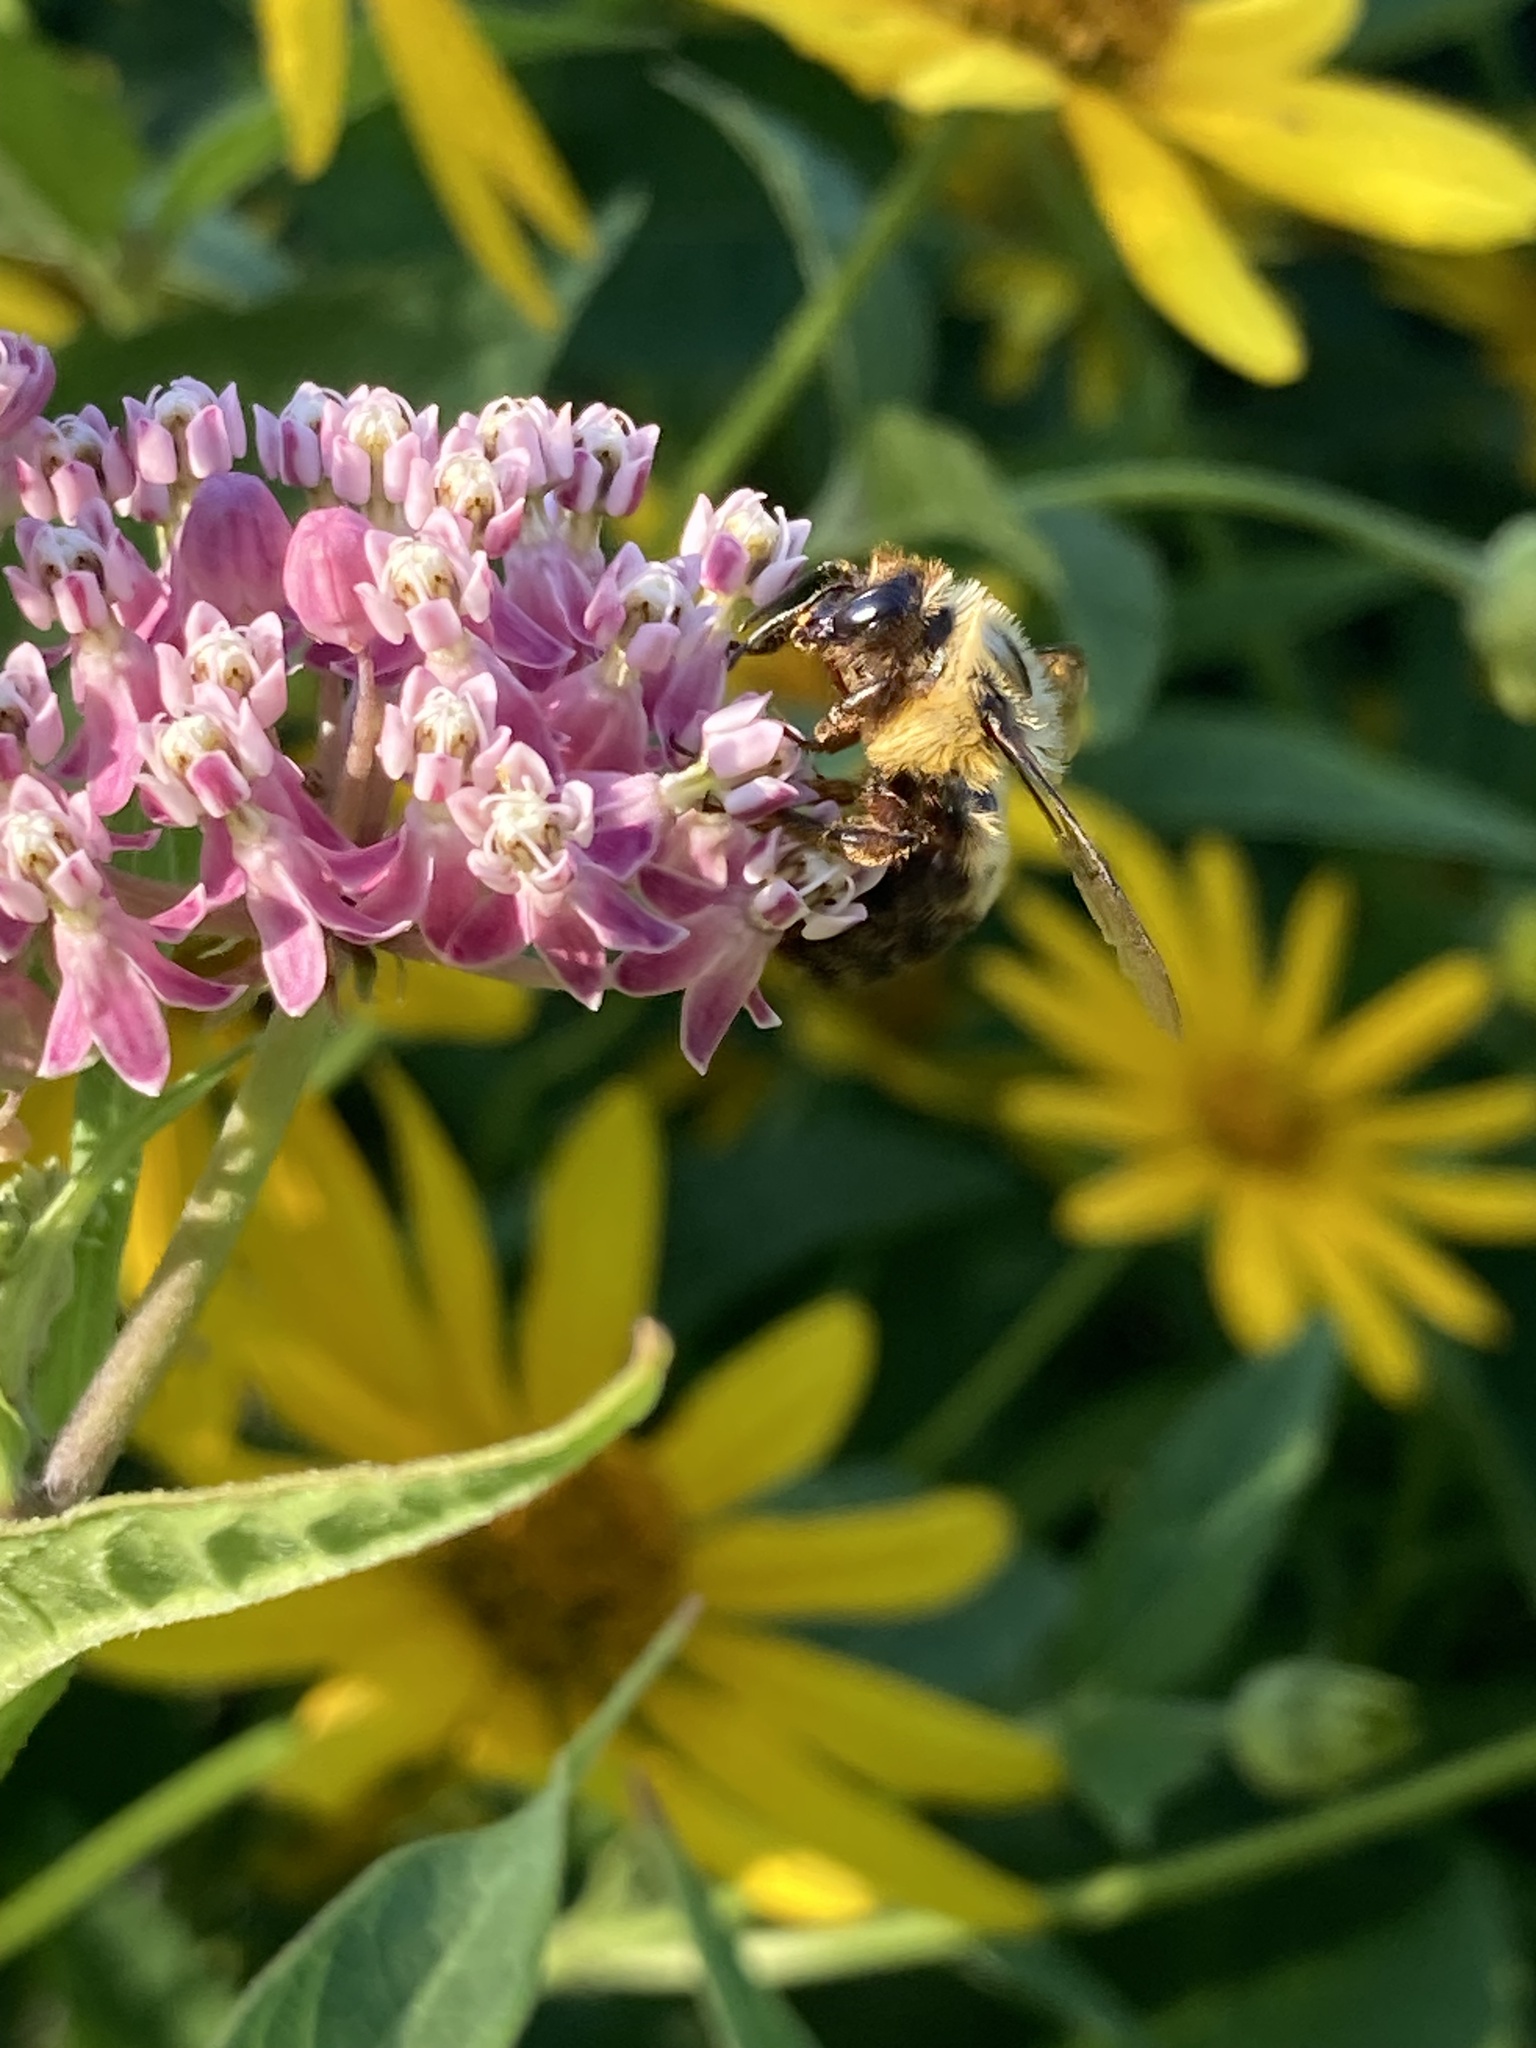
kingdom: Animalia
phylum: Arthropoda
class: Insecta
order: Hymenoptera
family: Apidae
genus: Bombus
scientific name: Bombus griseocollis
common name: Brown-belted bumble bee
